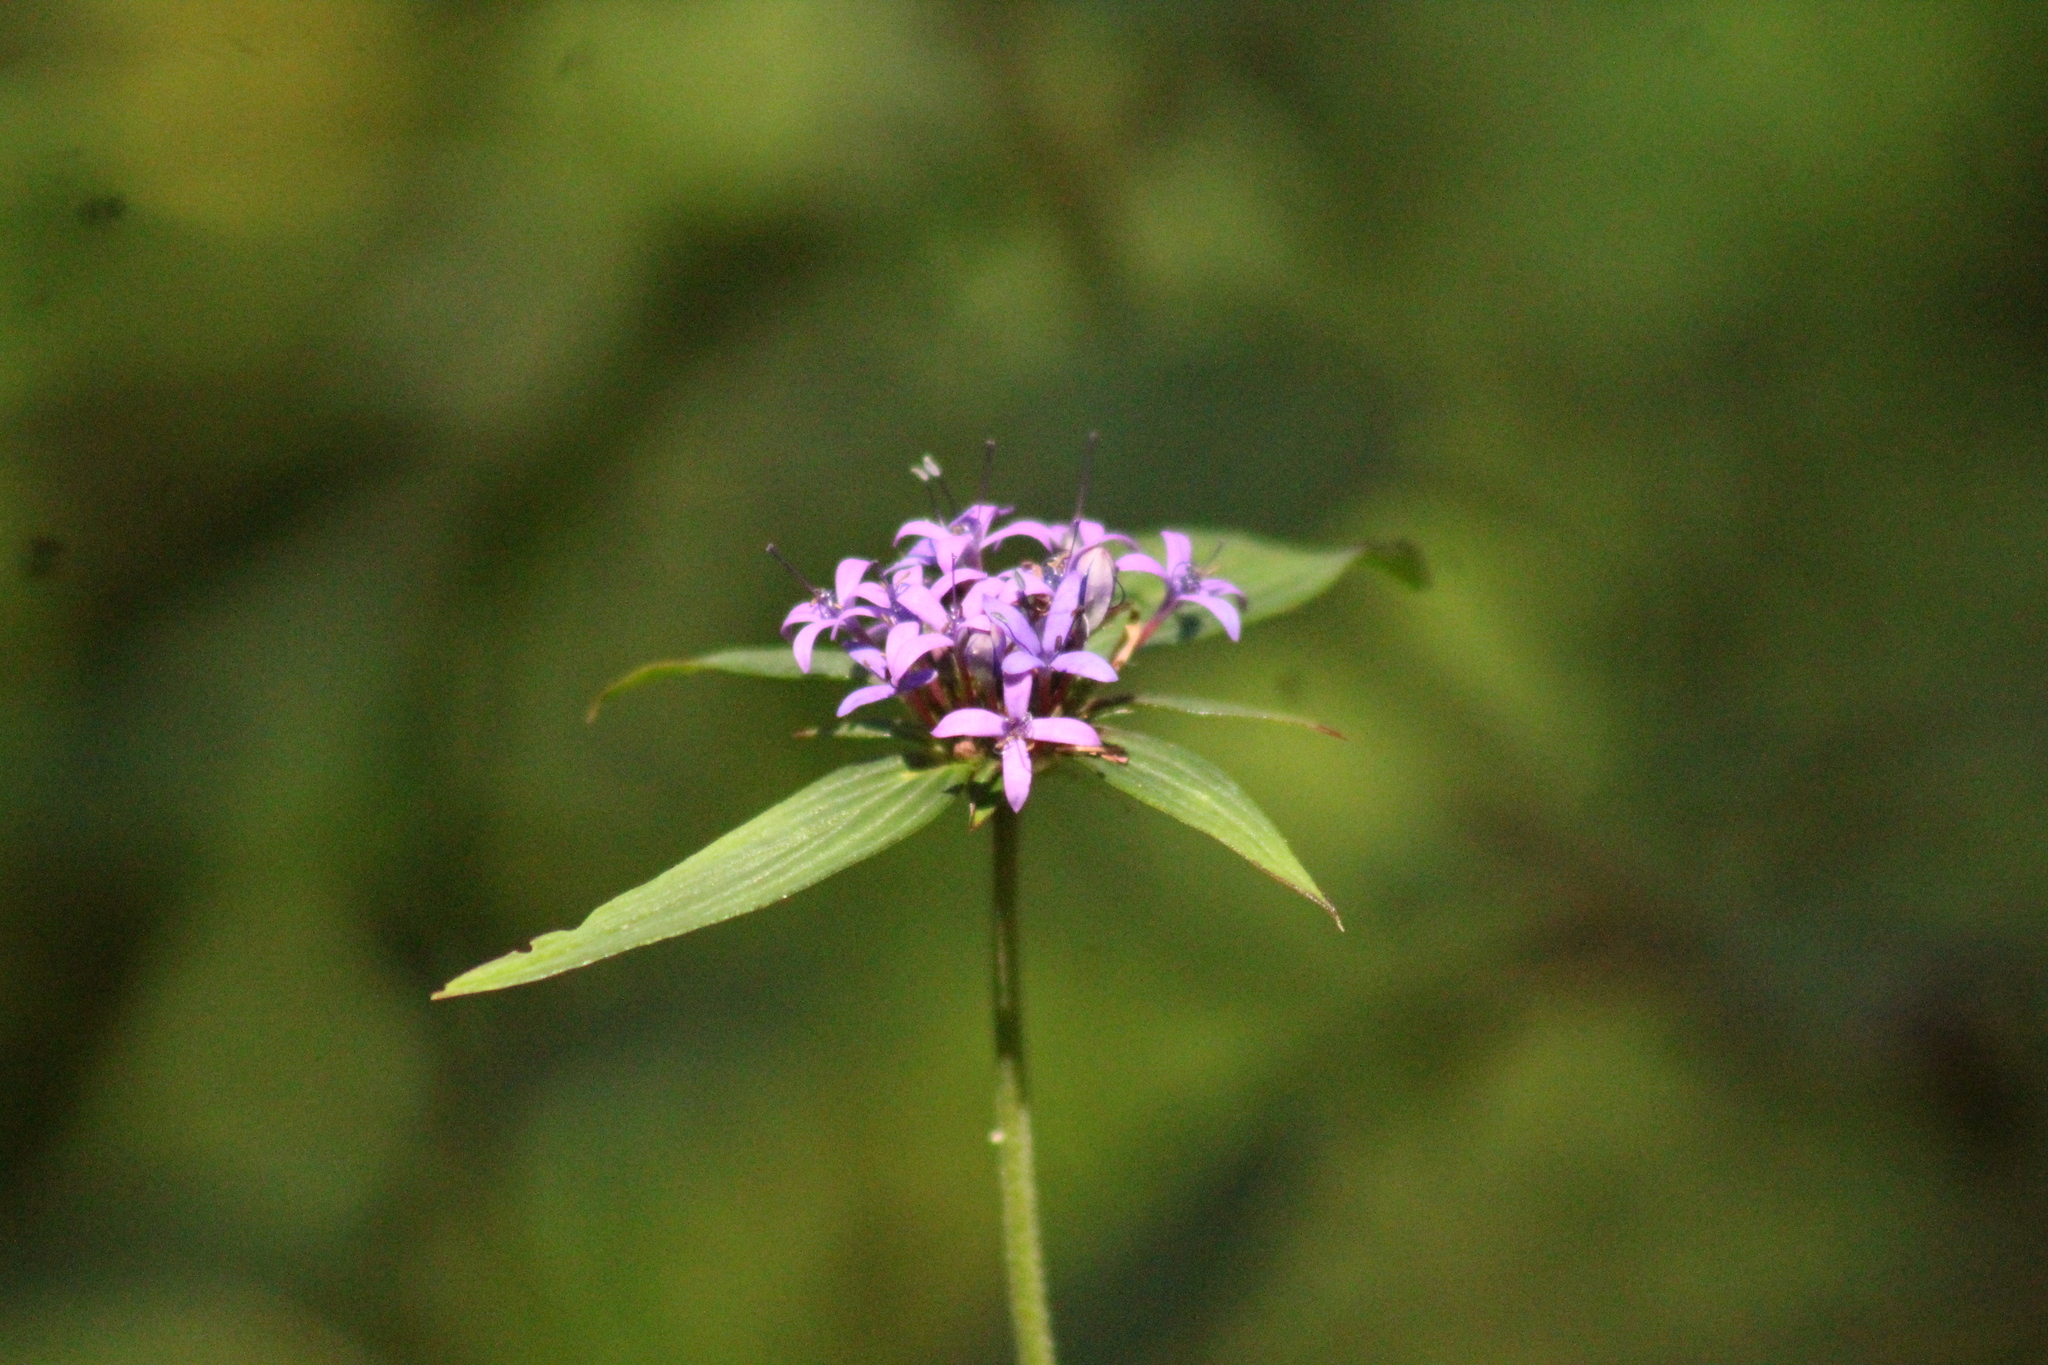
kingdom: Plantae
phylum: Tracheophyta
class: Magnoliopsida
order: Gentianales
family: Rubiaceae
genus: Crusea
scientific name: Crusea hispida
